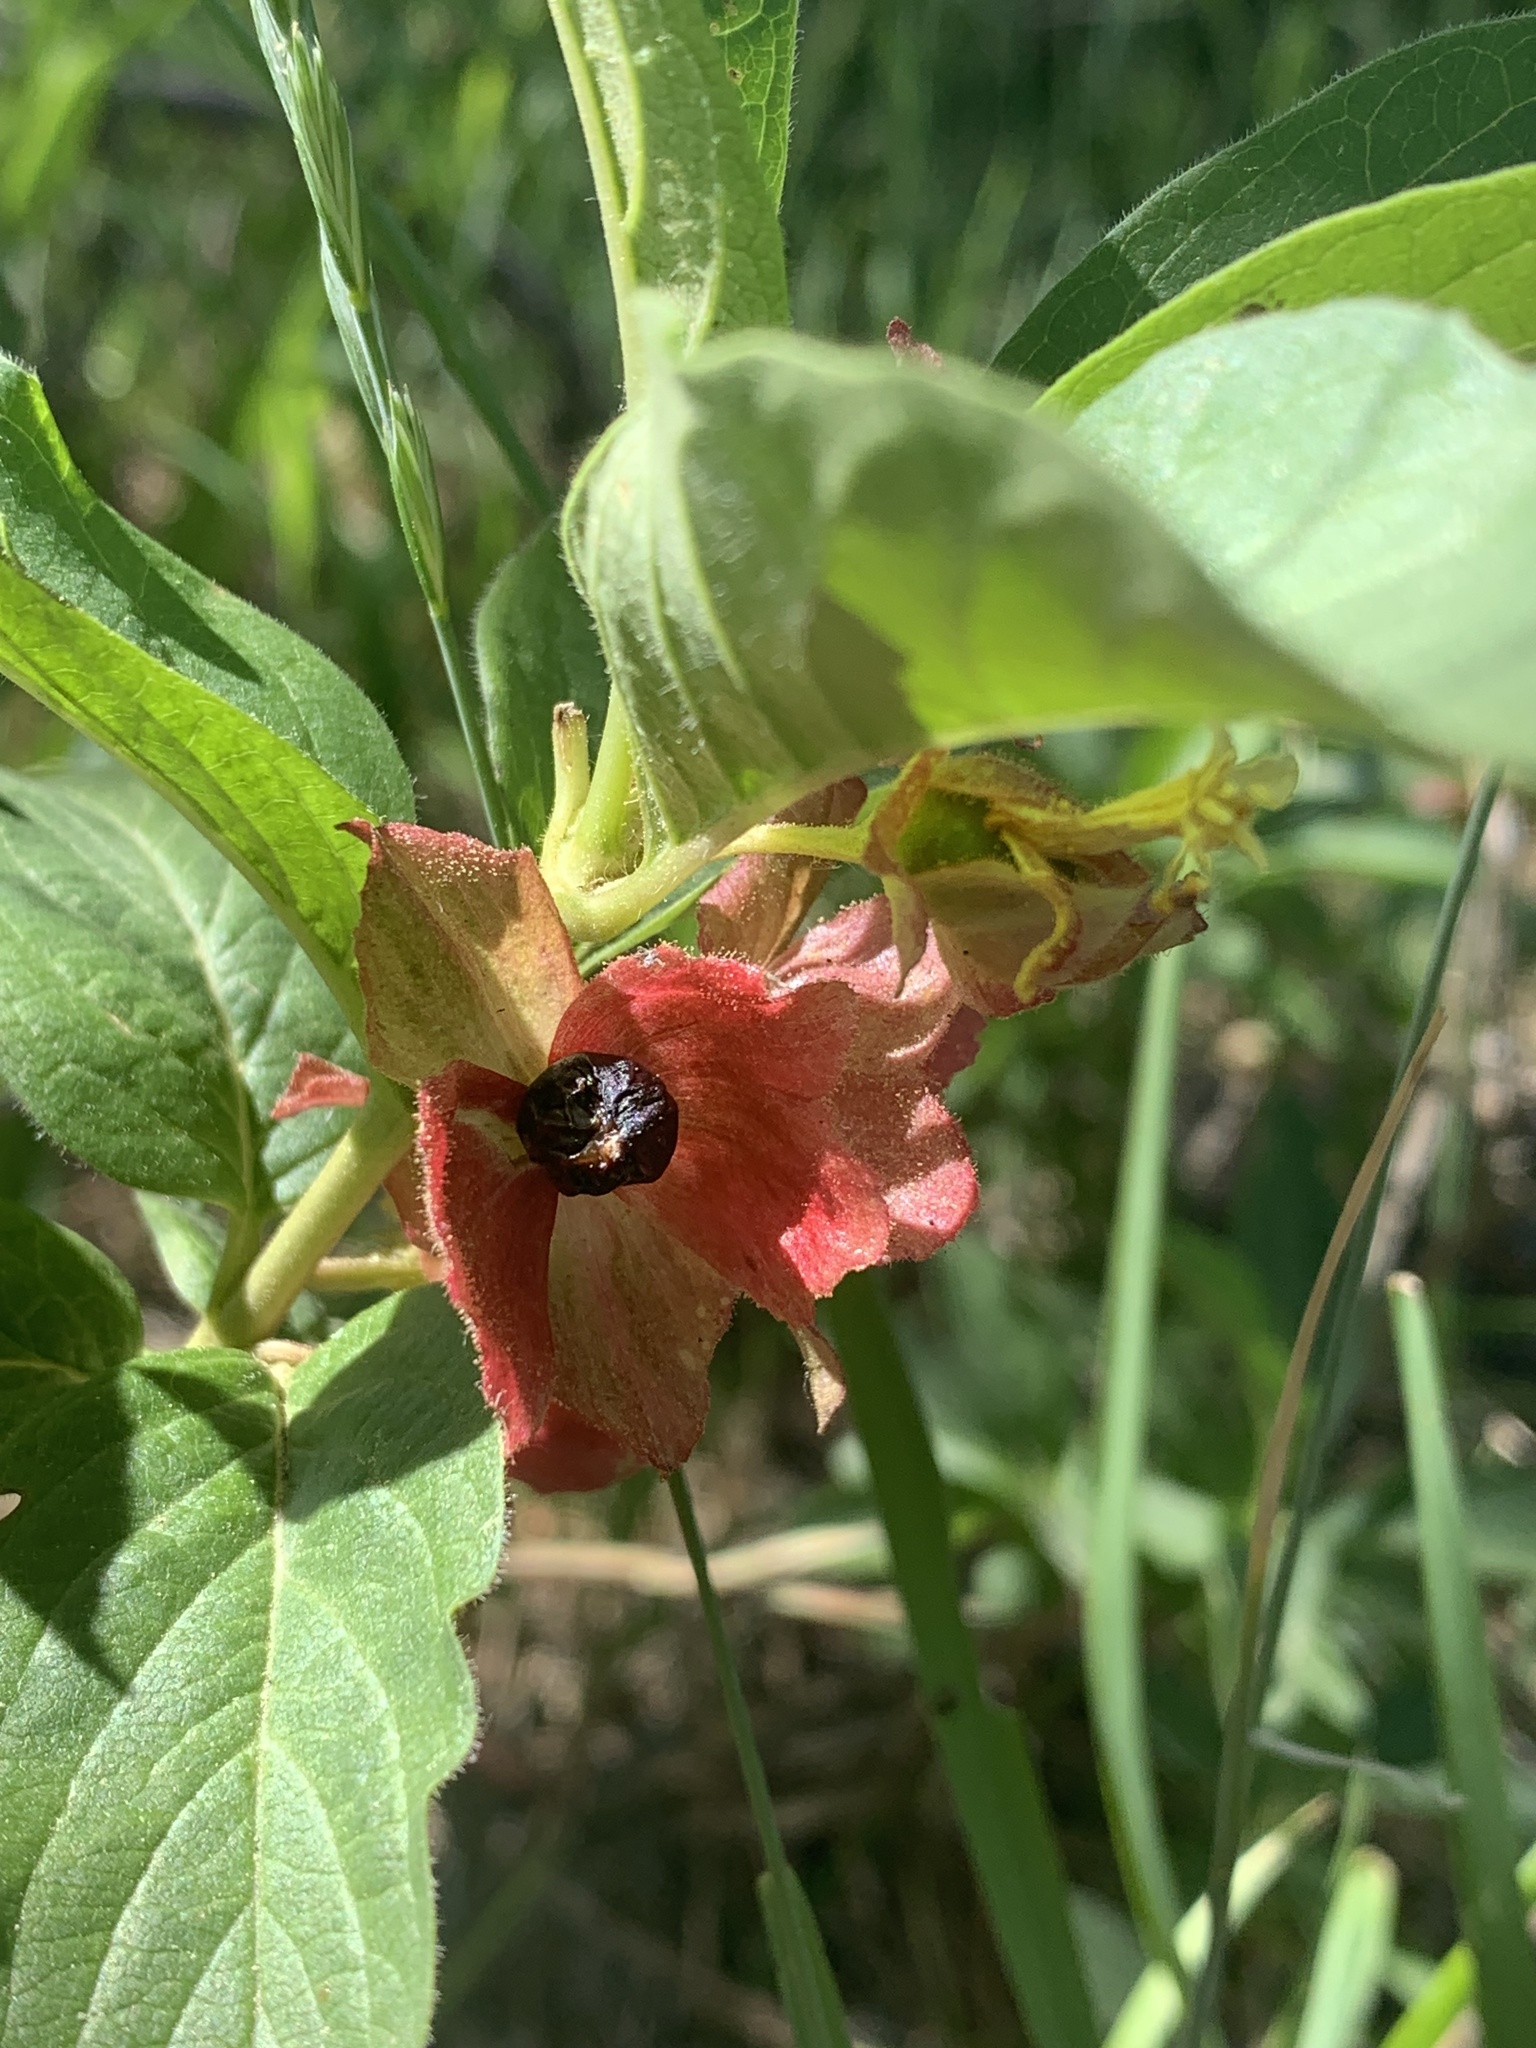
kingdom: Plantae
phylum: Tracheophyta
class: Magnoliopsida
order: Dipsacales
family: Caprifoliaceae
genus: Lonicera
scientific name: Lonicera involucrata
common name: Californian honeysuckle
